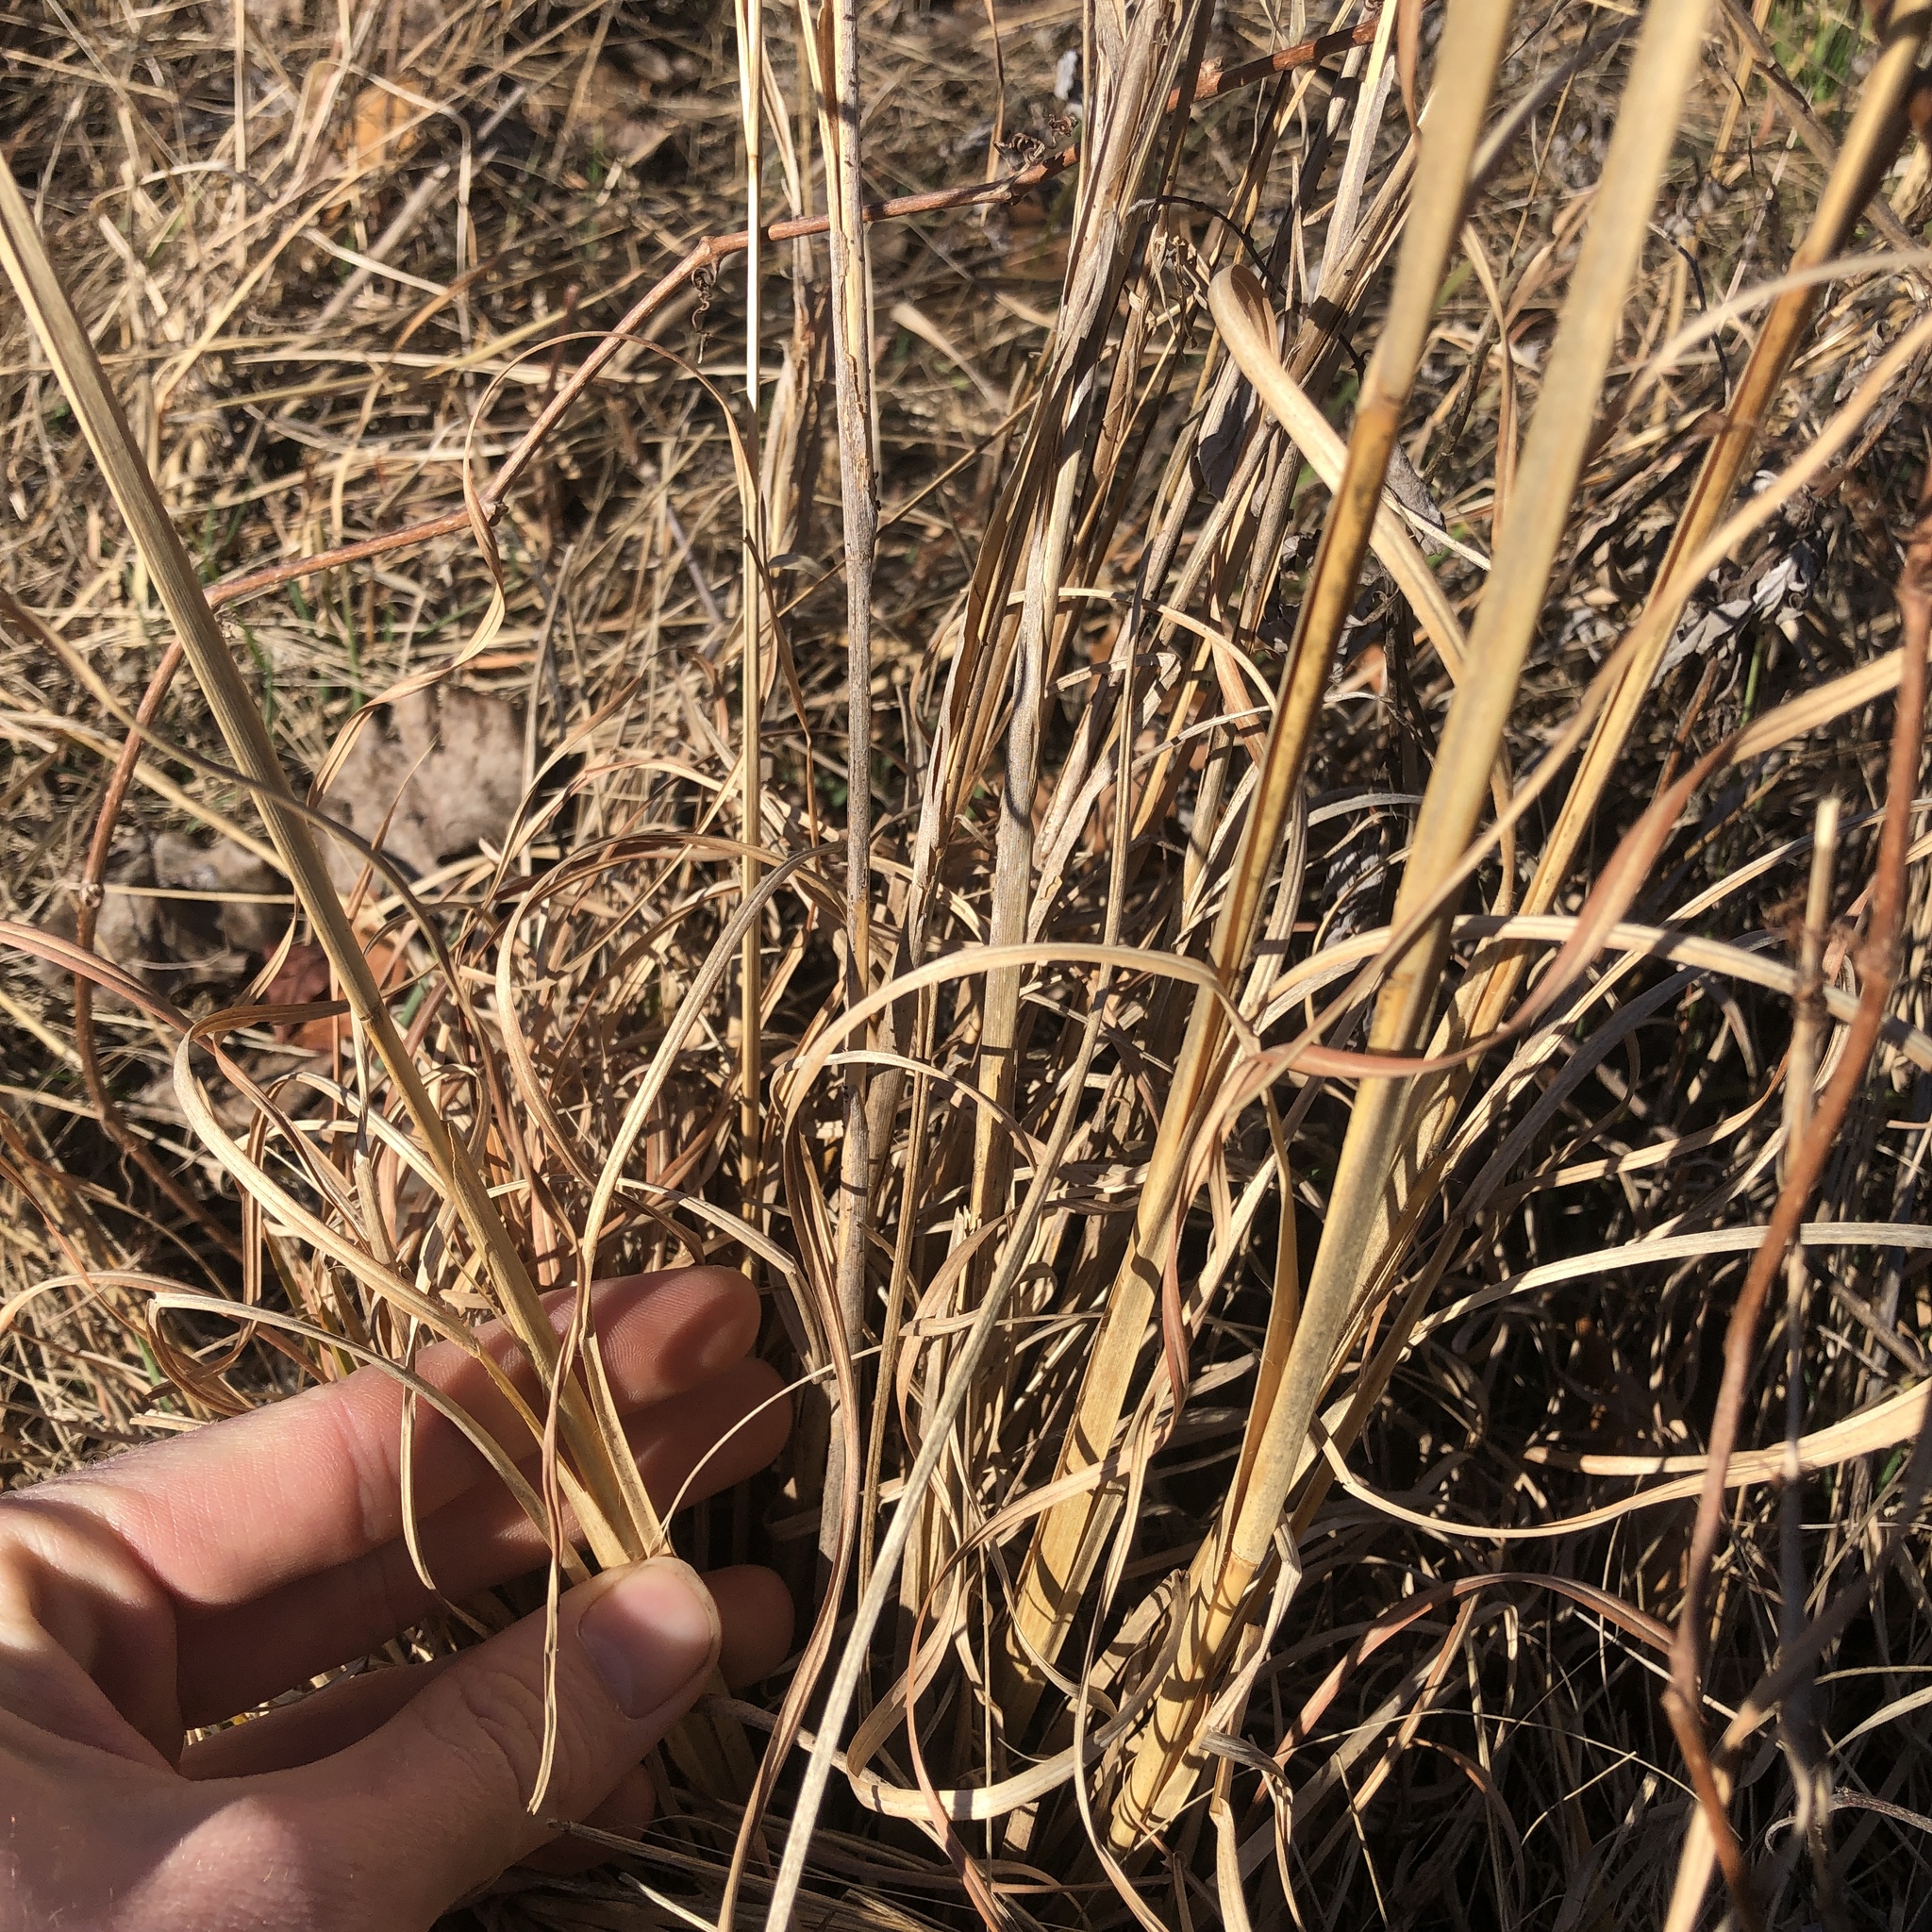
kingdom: Plantae
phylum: Tracheophyta
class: Liliopsida
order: Poales
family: Poaceae
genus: Andropogon
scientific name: Andropogon virginicus
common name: Broomsedge bluestem
